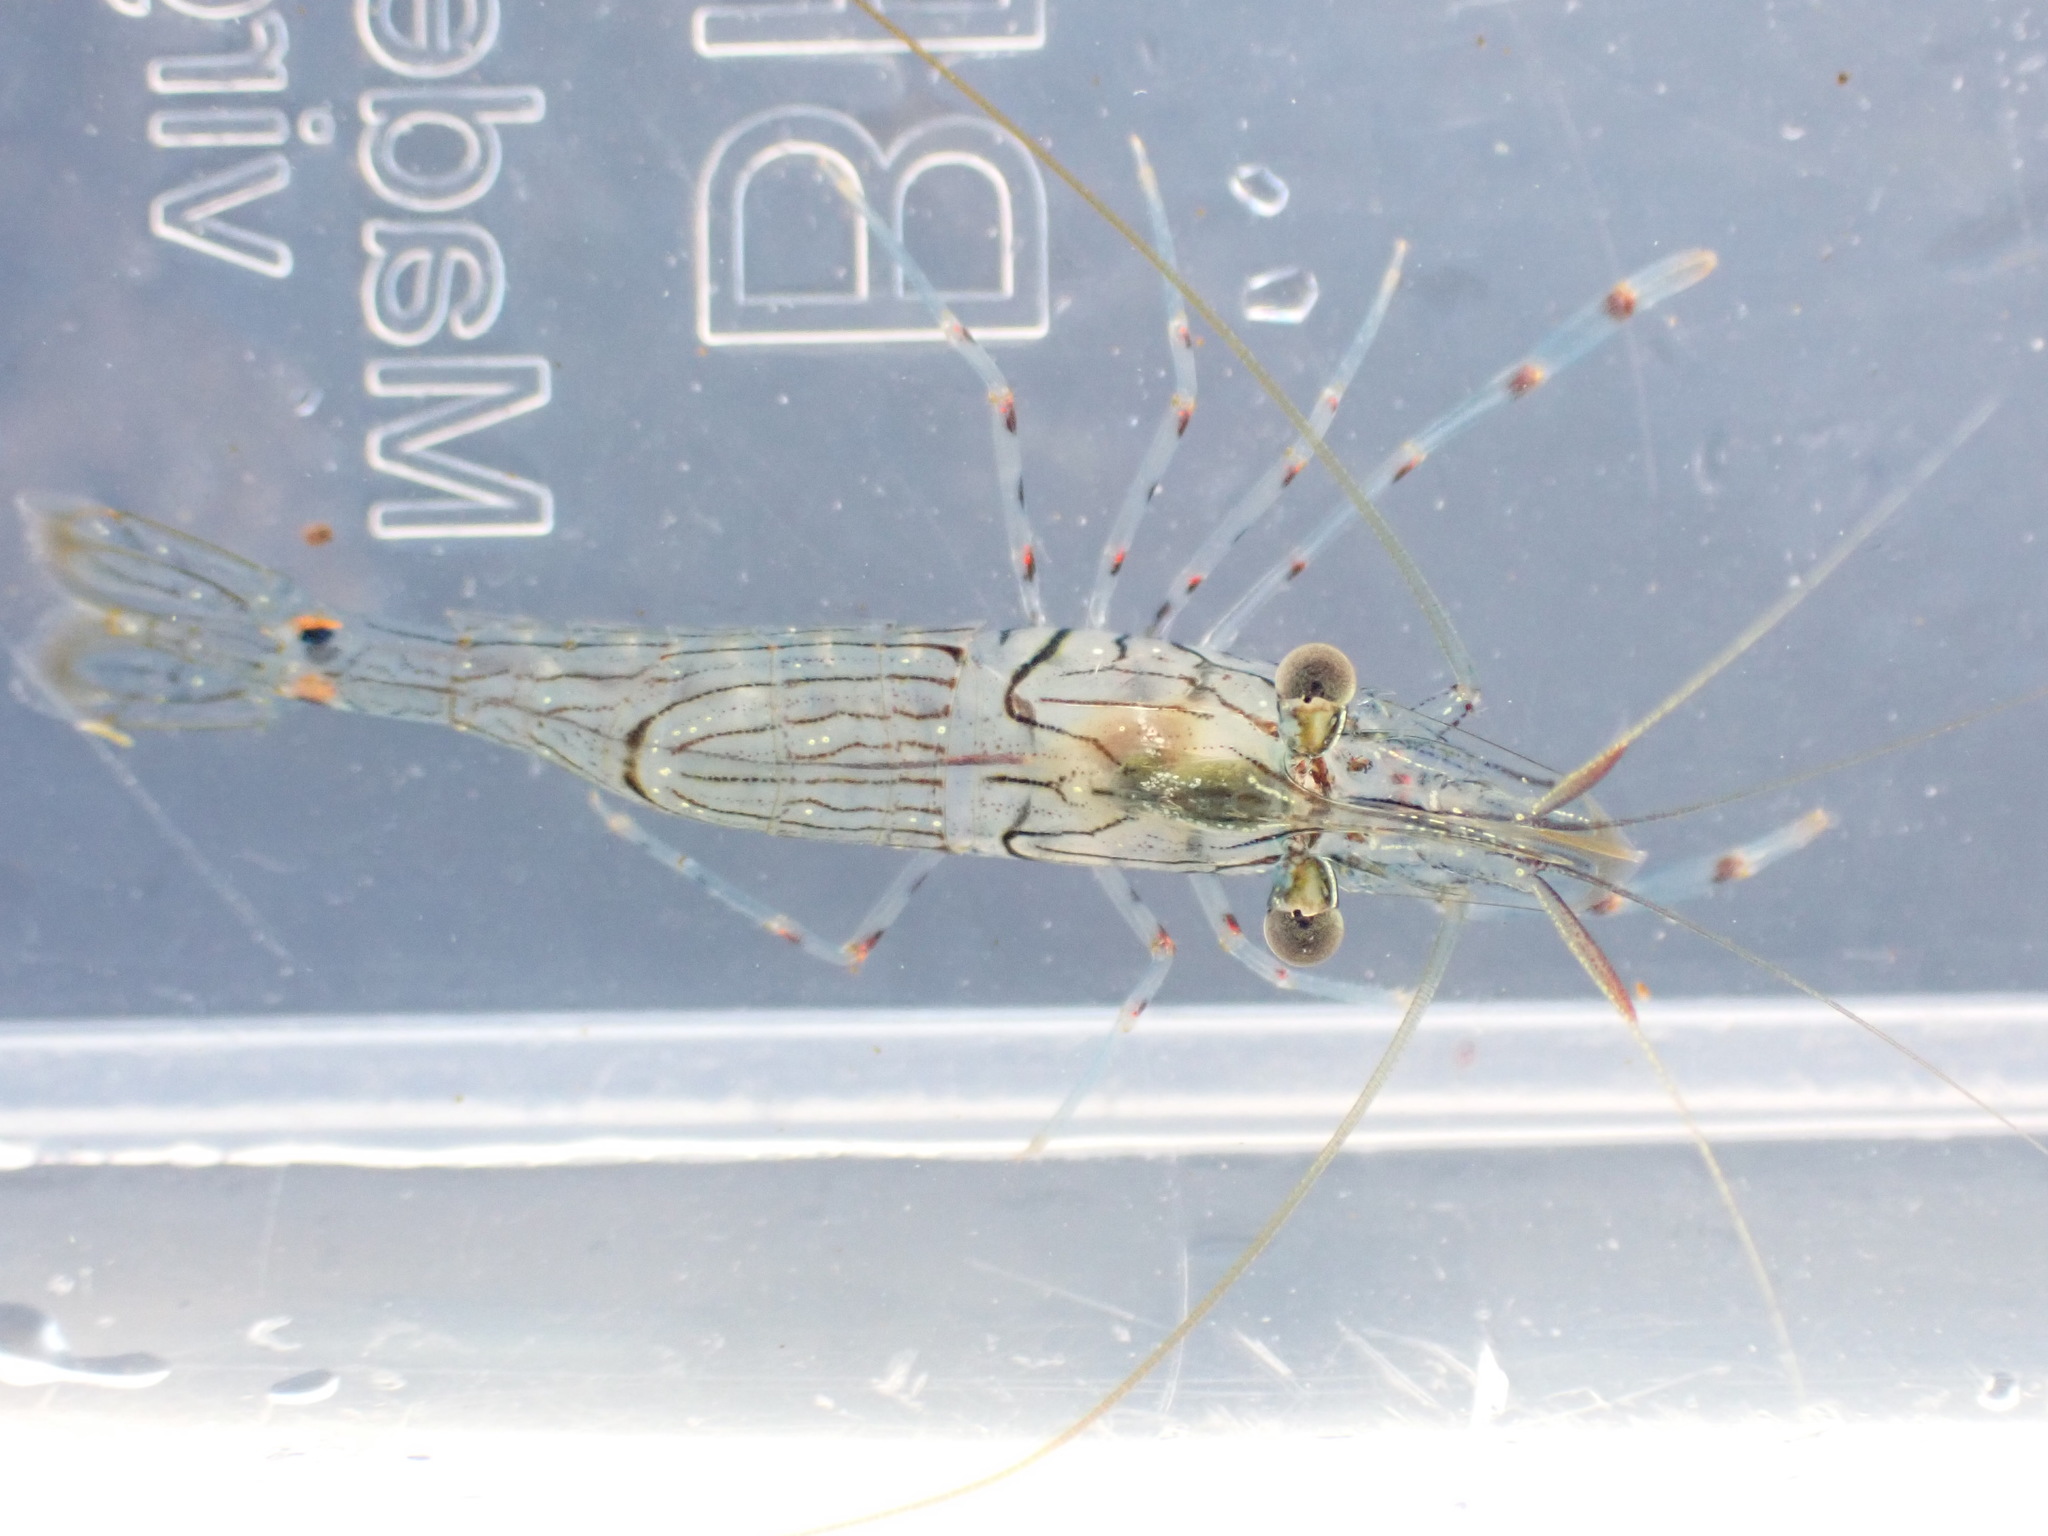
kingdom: Animalia
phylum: Arthropoda
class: Malacostraca
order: Decapoda
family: Palaemonidae
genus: Palaemon
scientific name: Palaemon affinis
